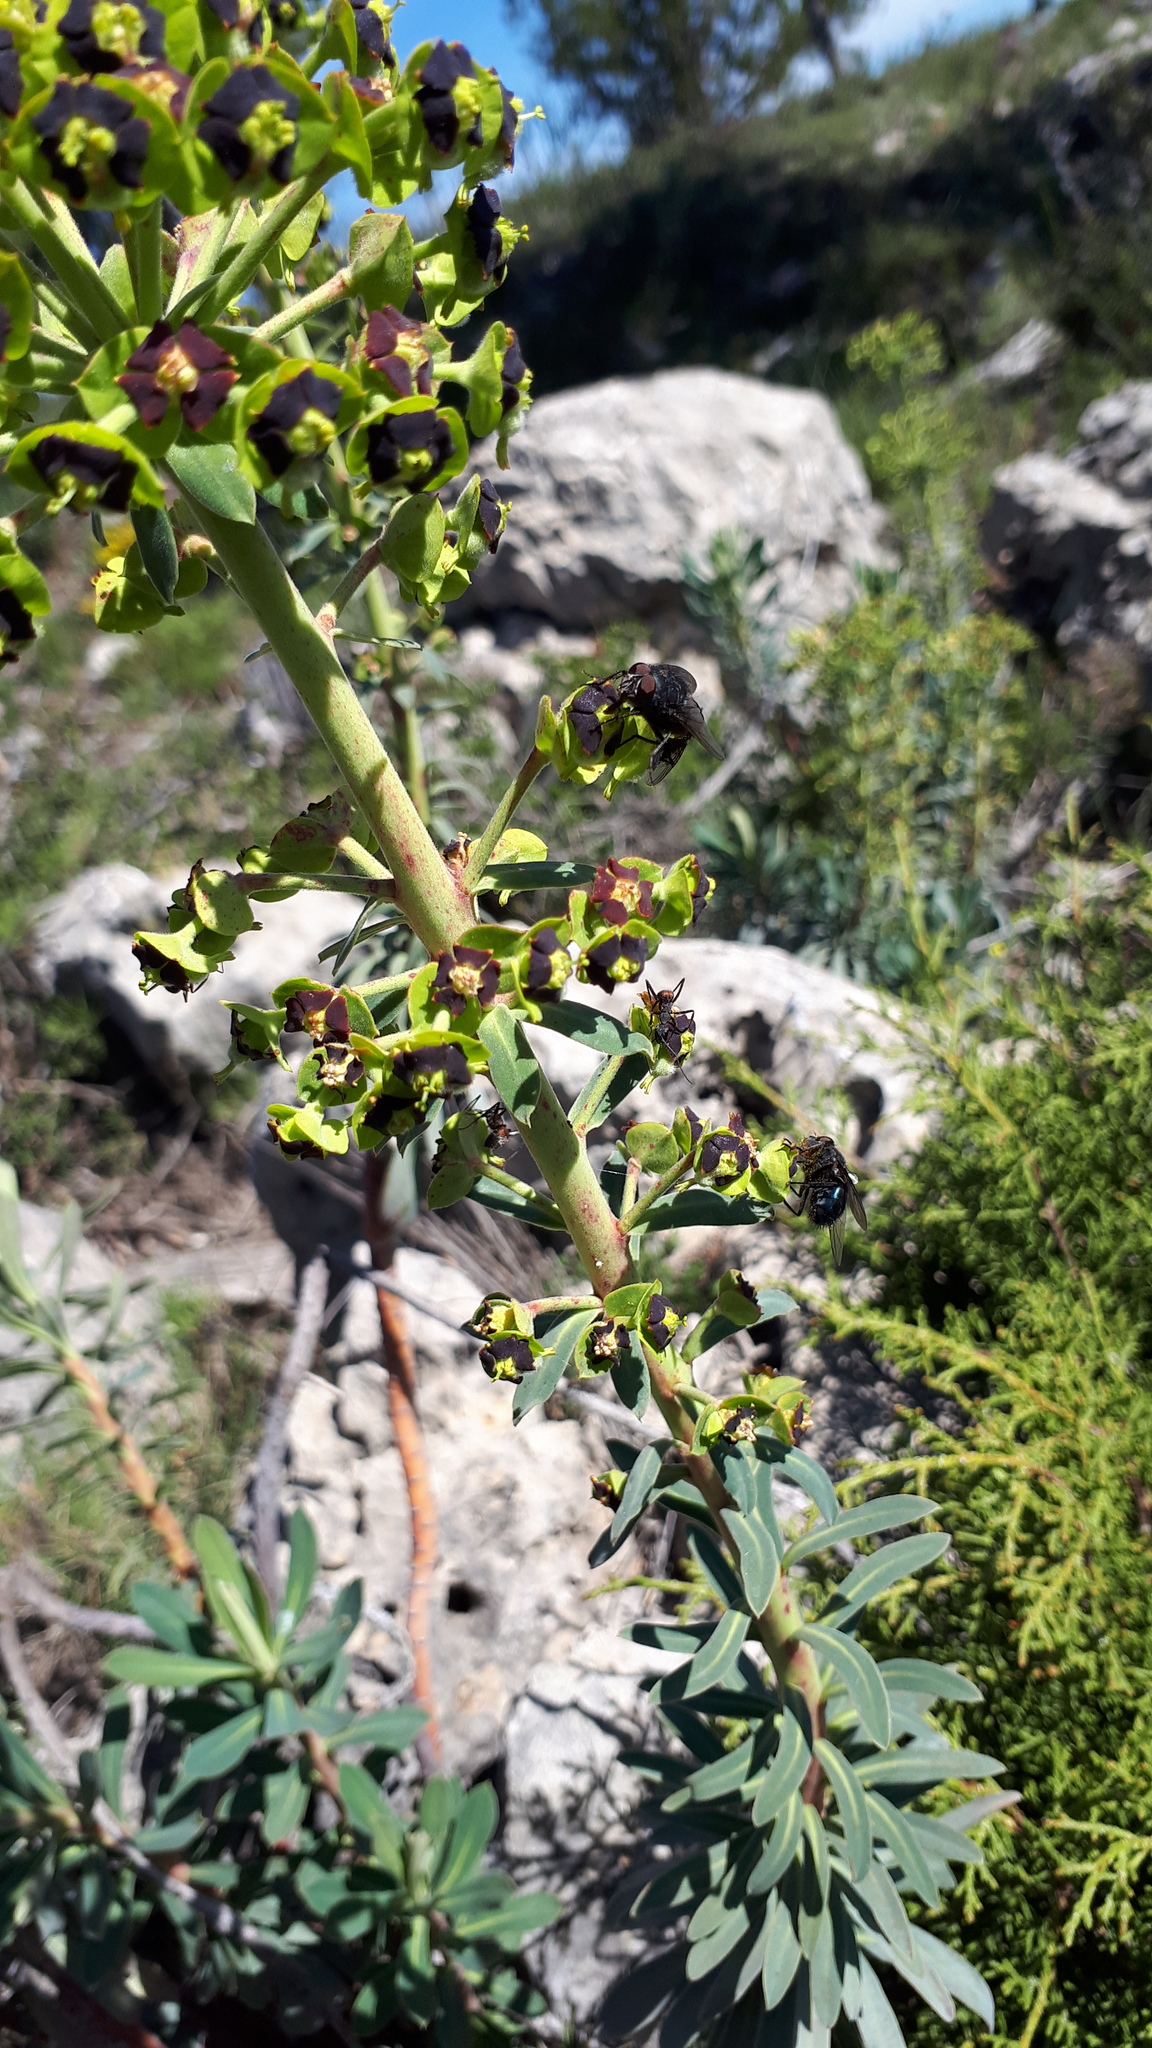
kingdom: Plantae
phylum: Tracheophyta
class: Magnoliopsida
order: Malpighiales
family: Euphorbiaceae
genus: Euphorbia
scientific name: Euphorbia characias
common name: Mediterranean spurge
